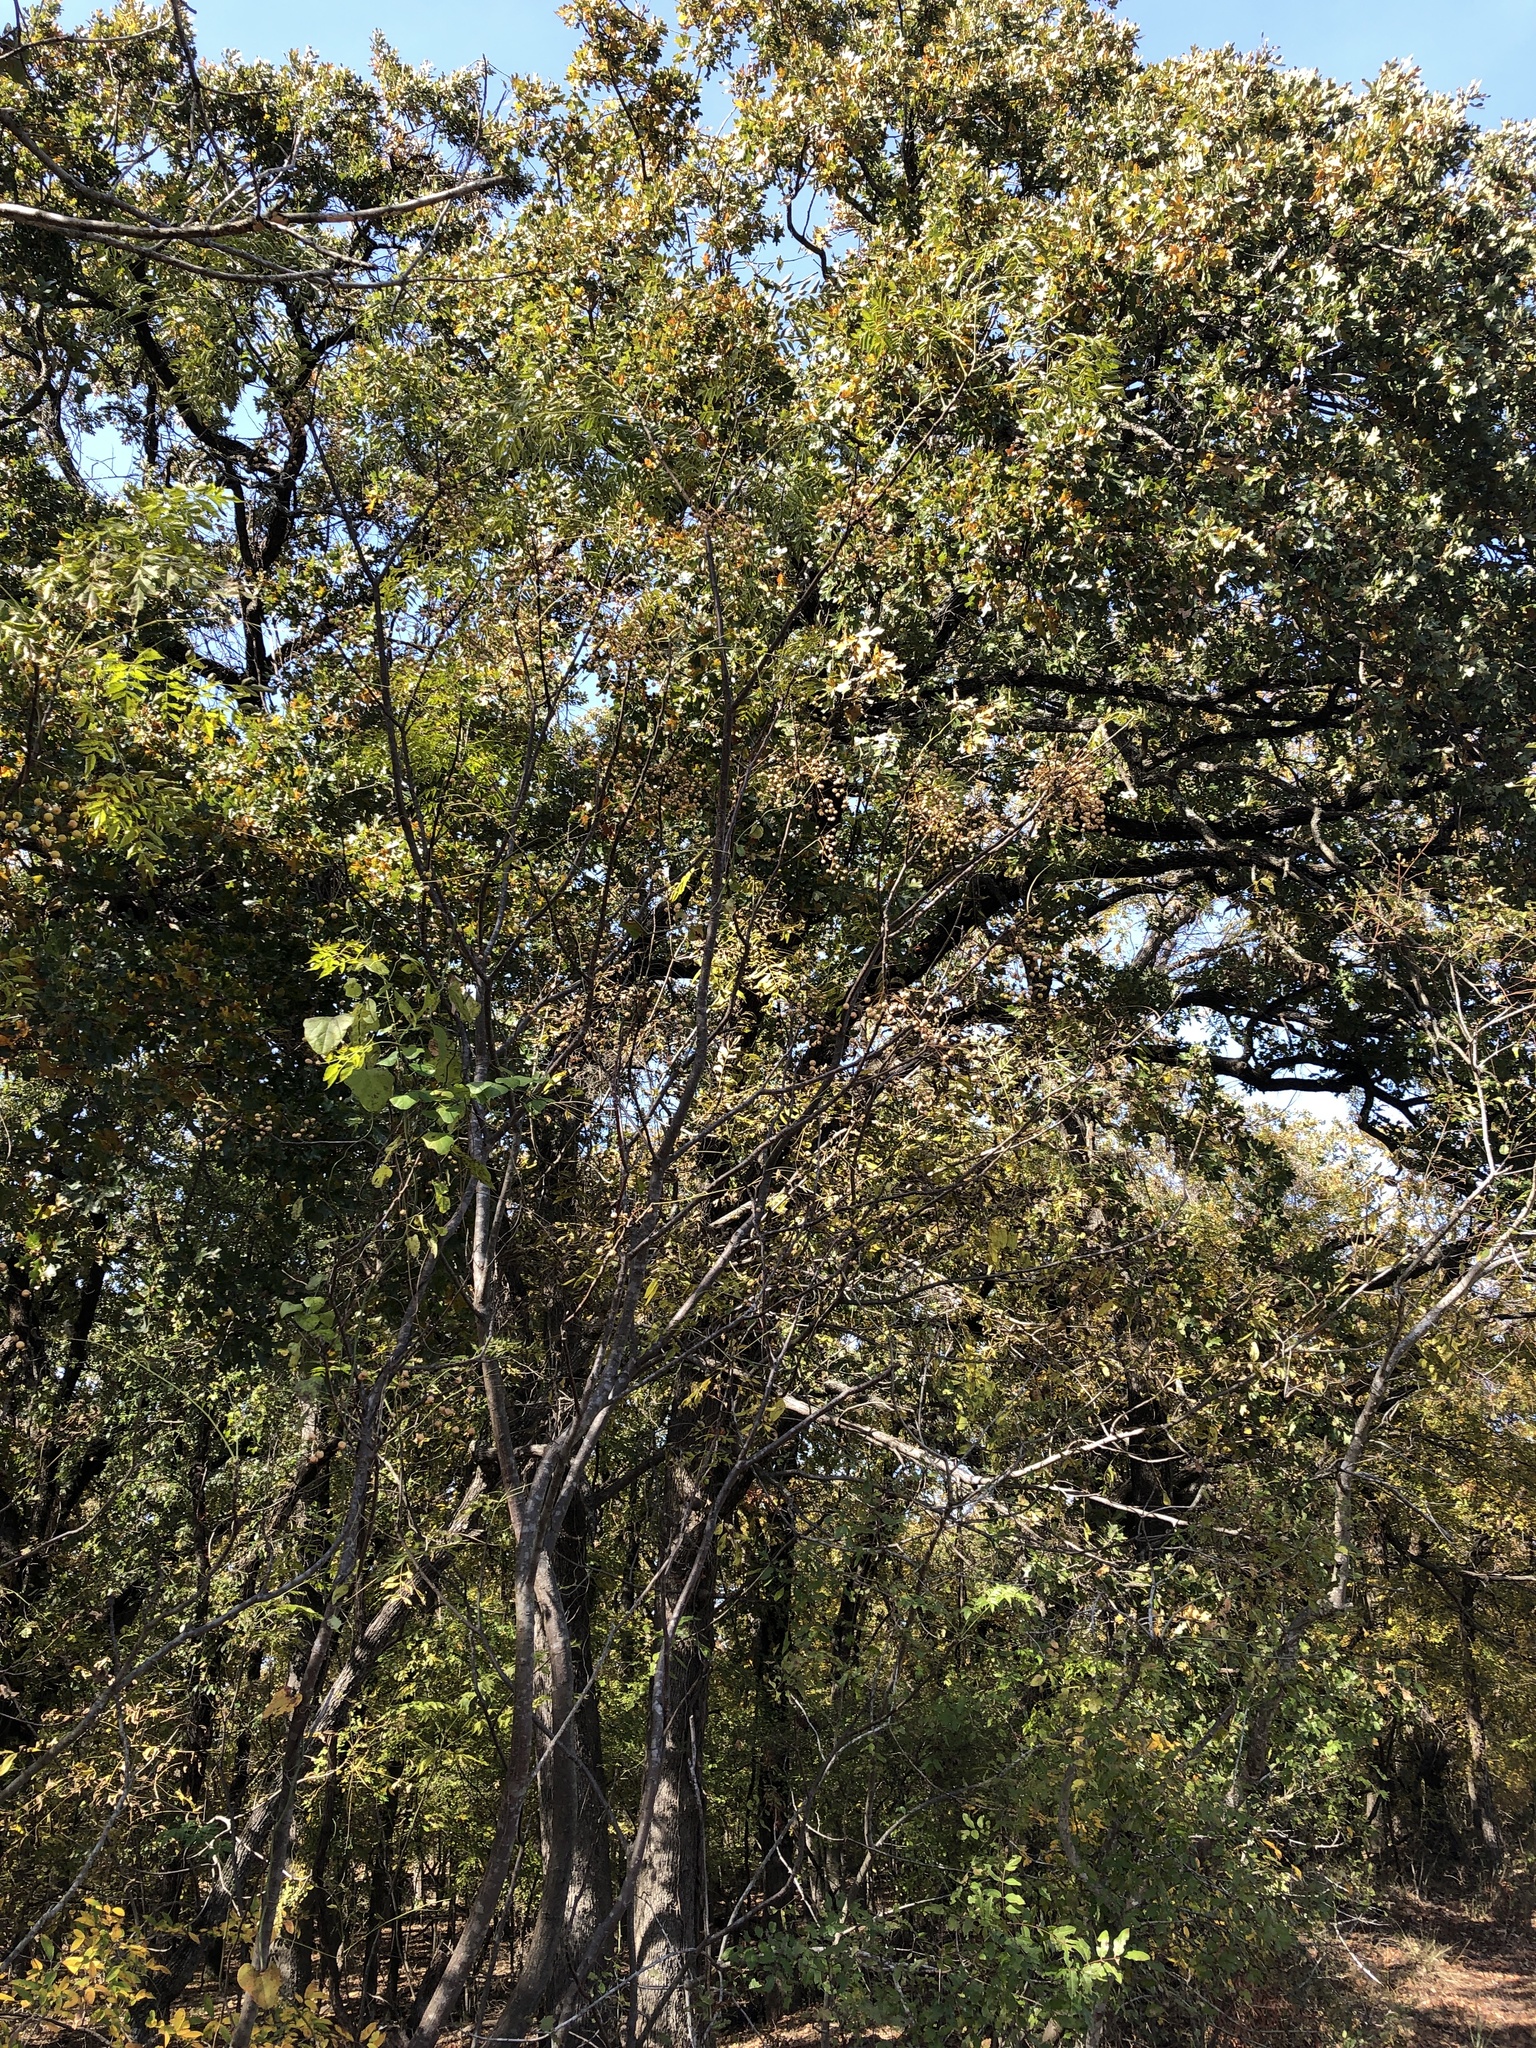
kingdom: Plantae
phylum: Tracheophyta
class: Magnoliopsida
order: Fagales
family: Fagaceae
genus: Quercus
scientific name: Quercus stellata
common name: Post oak
